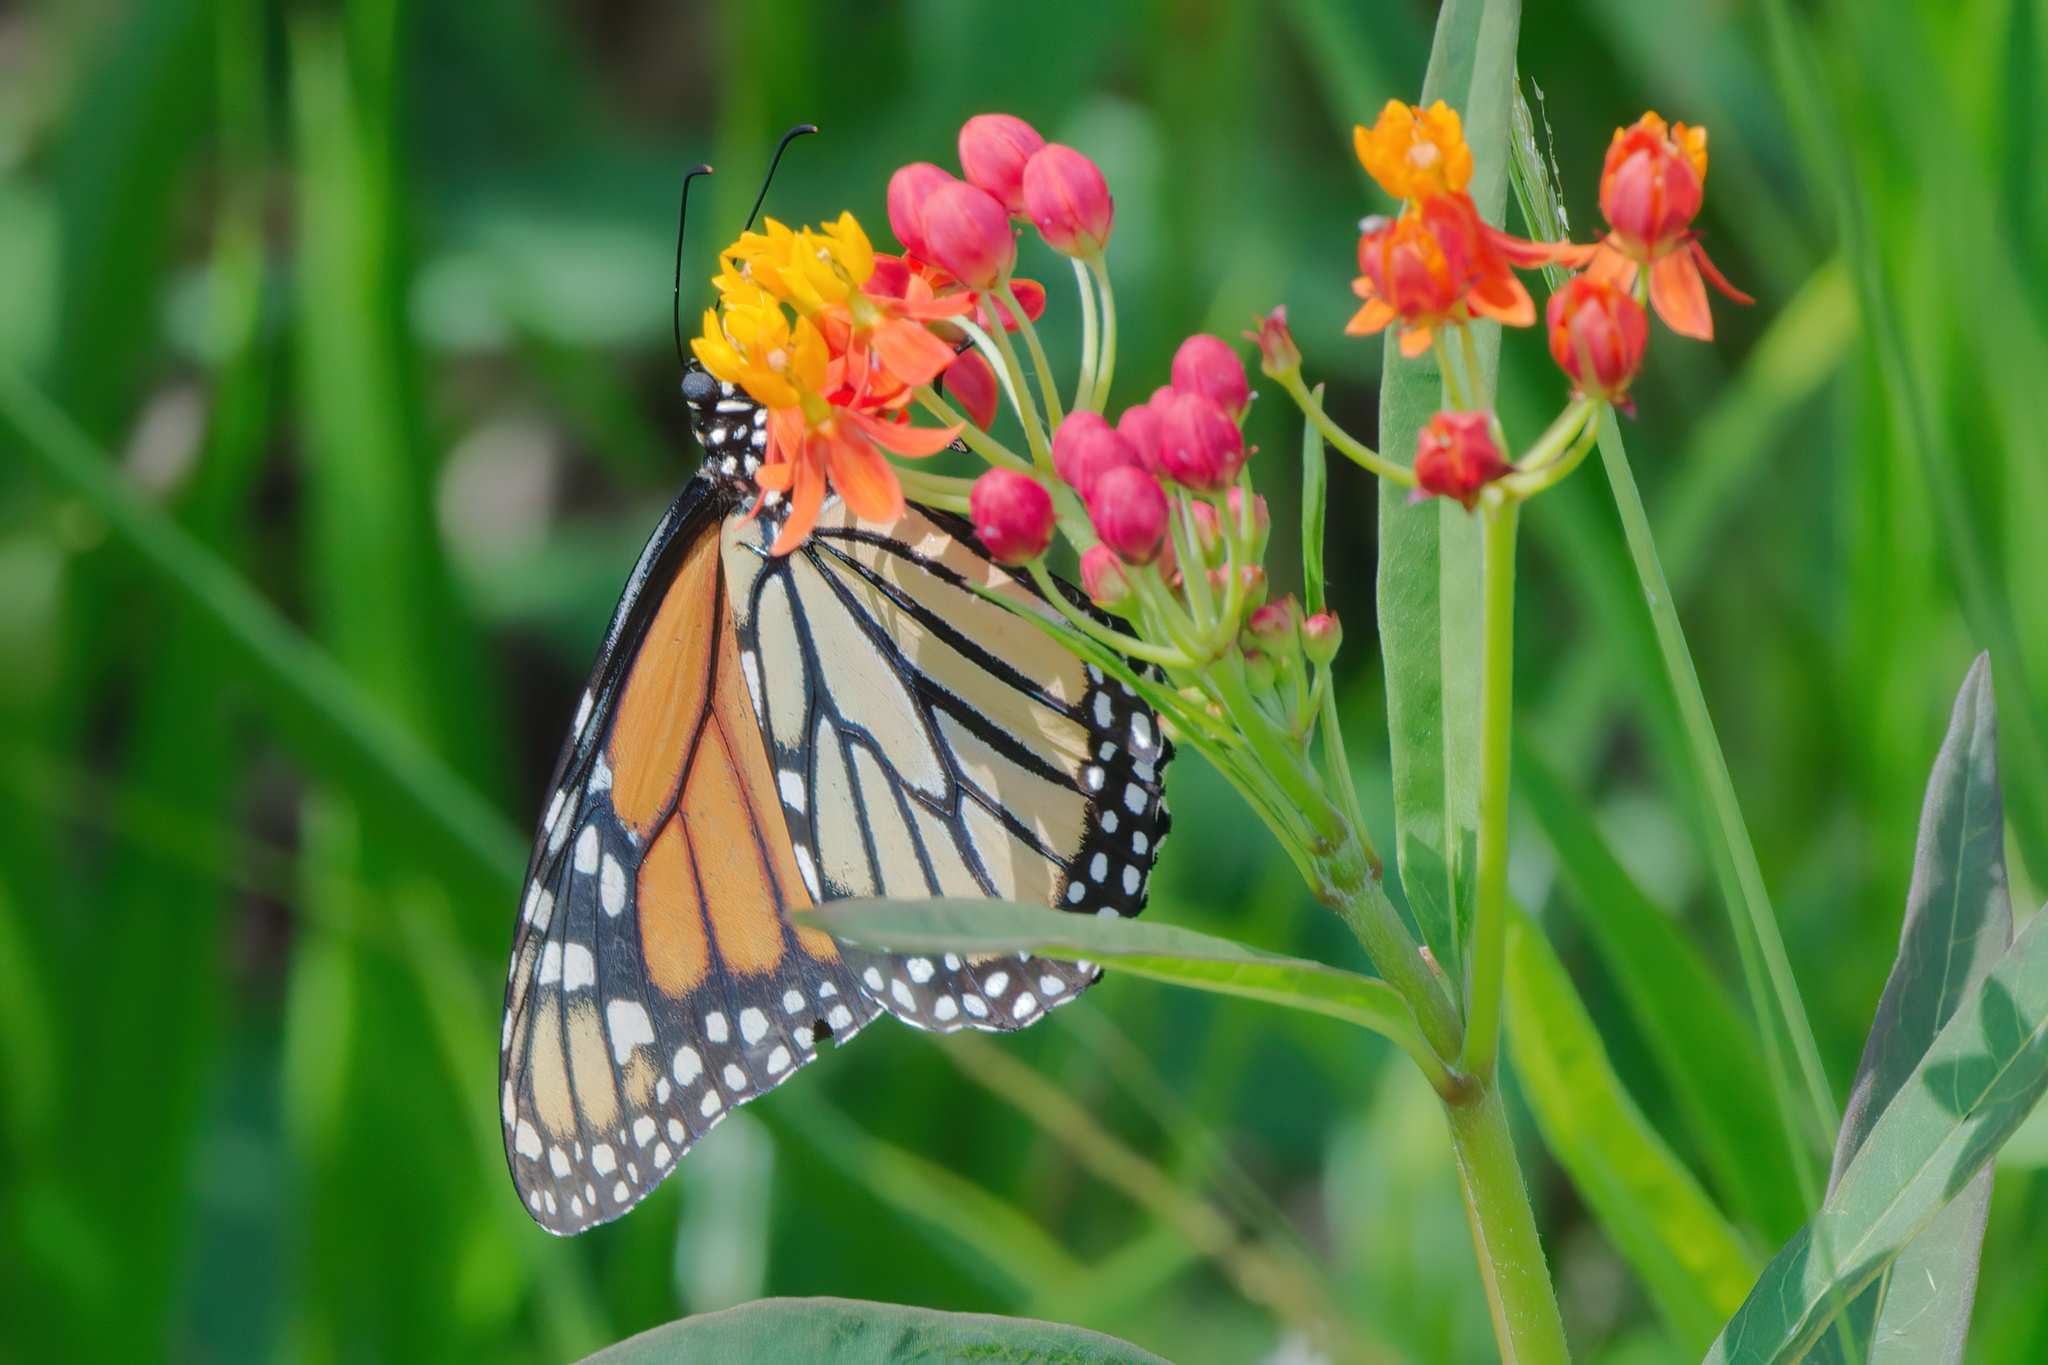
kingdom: Animalia
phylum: Arthropoda
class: Insecta
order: Lepidoptera
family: Nymphalidae
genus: Danaus
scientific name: Danaus plexippus
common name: Monarch
